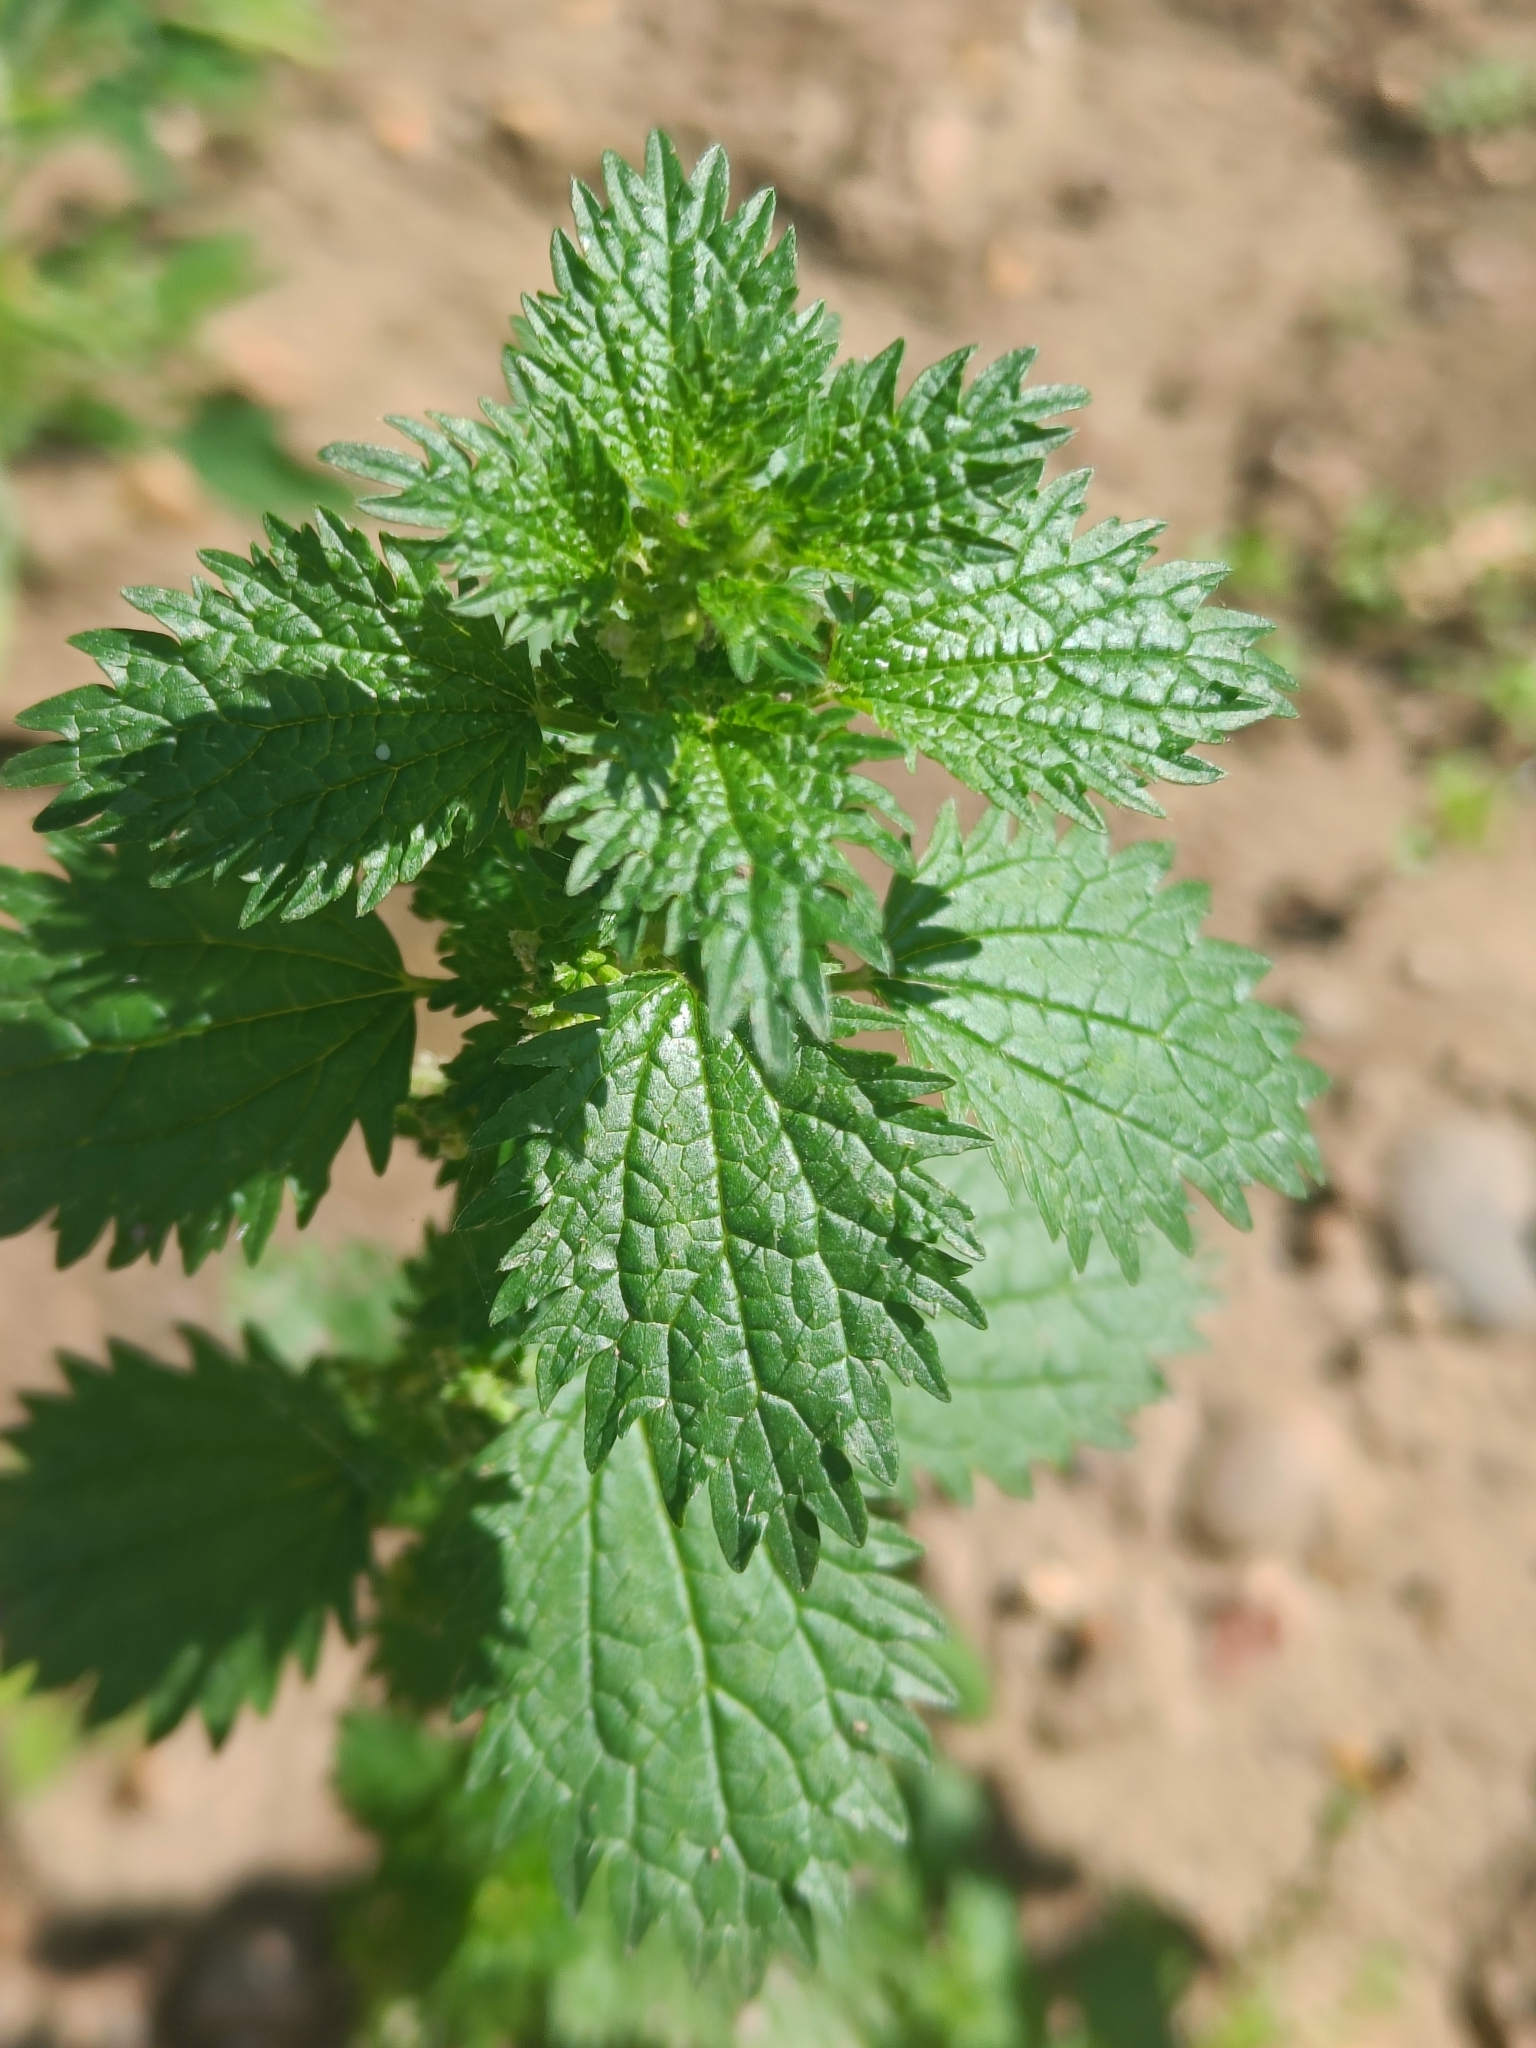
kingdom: Plantae
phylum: Tracheophyta
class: Magnoliopsida
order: Rosales
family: Urticaceae
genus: Urtica
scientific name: Urtica urens
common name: Dwarf nettle
